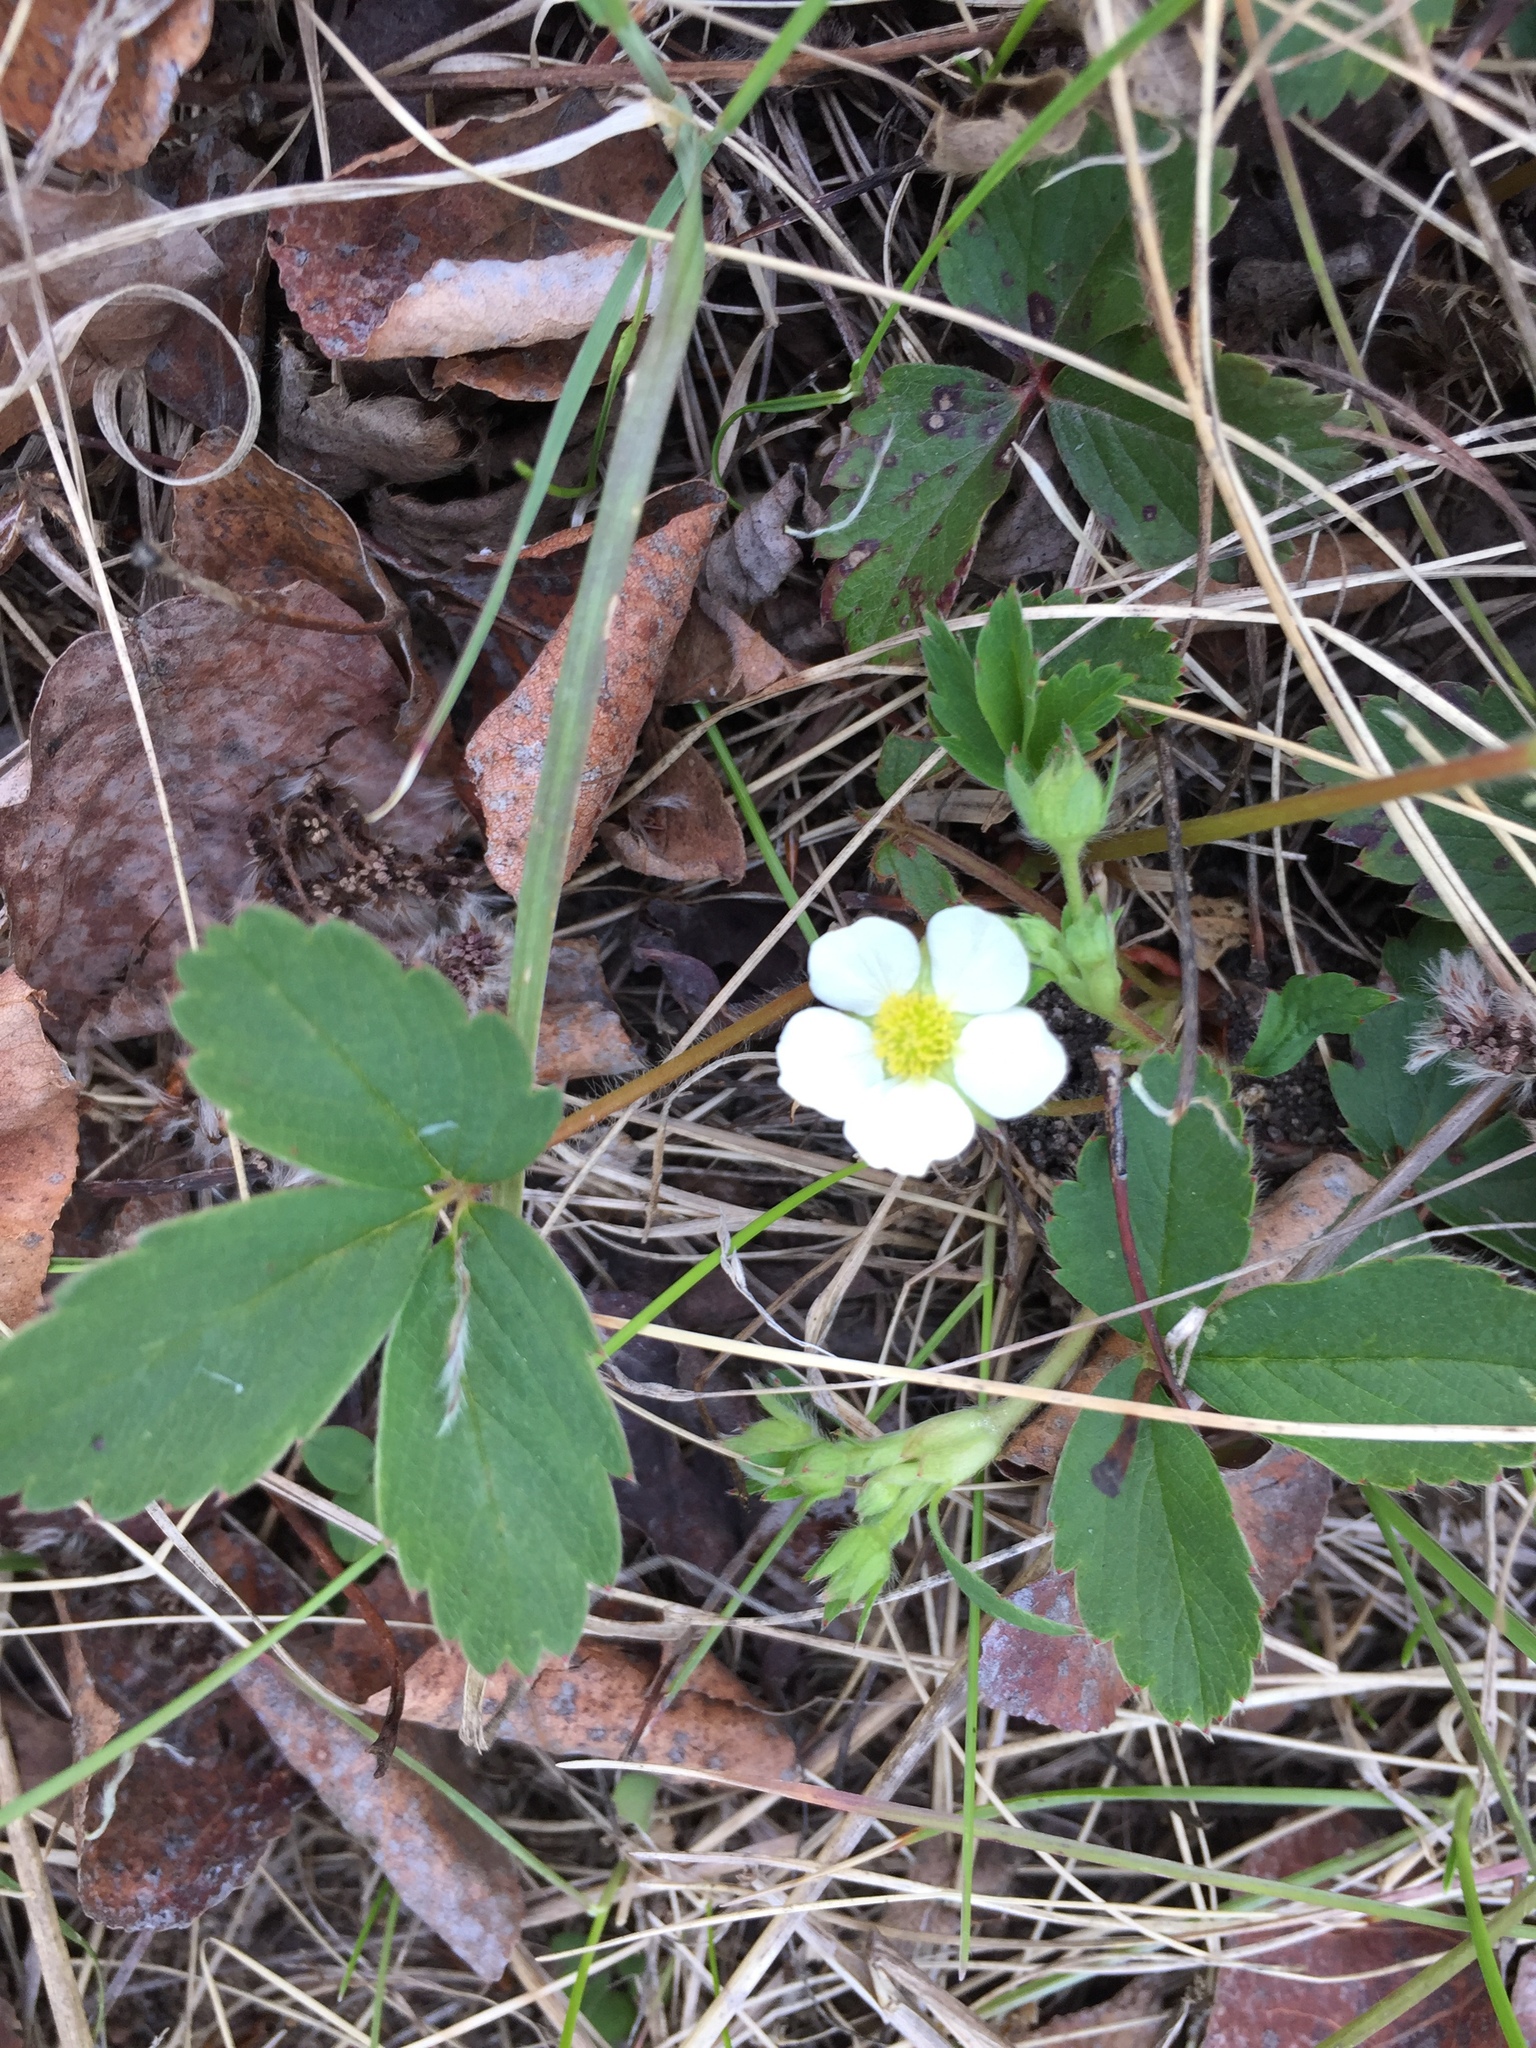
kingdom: Plantae
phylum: Tracheophyta
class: Magnoliopsida
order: Rosales
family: Rosaceae
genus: Fragaria
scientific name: Fragaria virginiana
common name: Thickleaved wild strawberry
